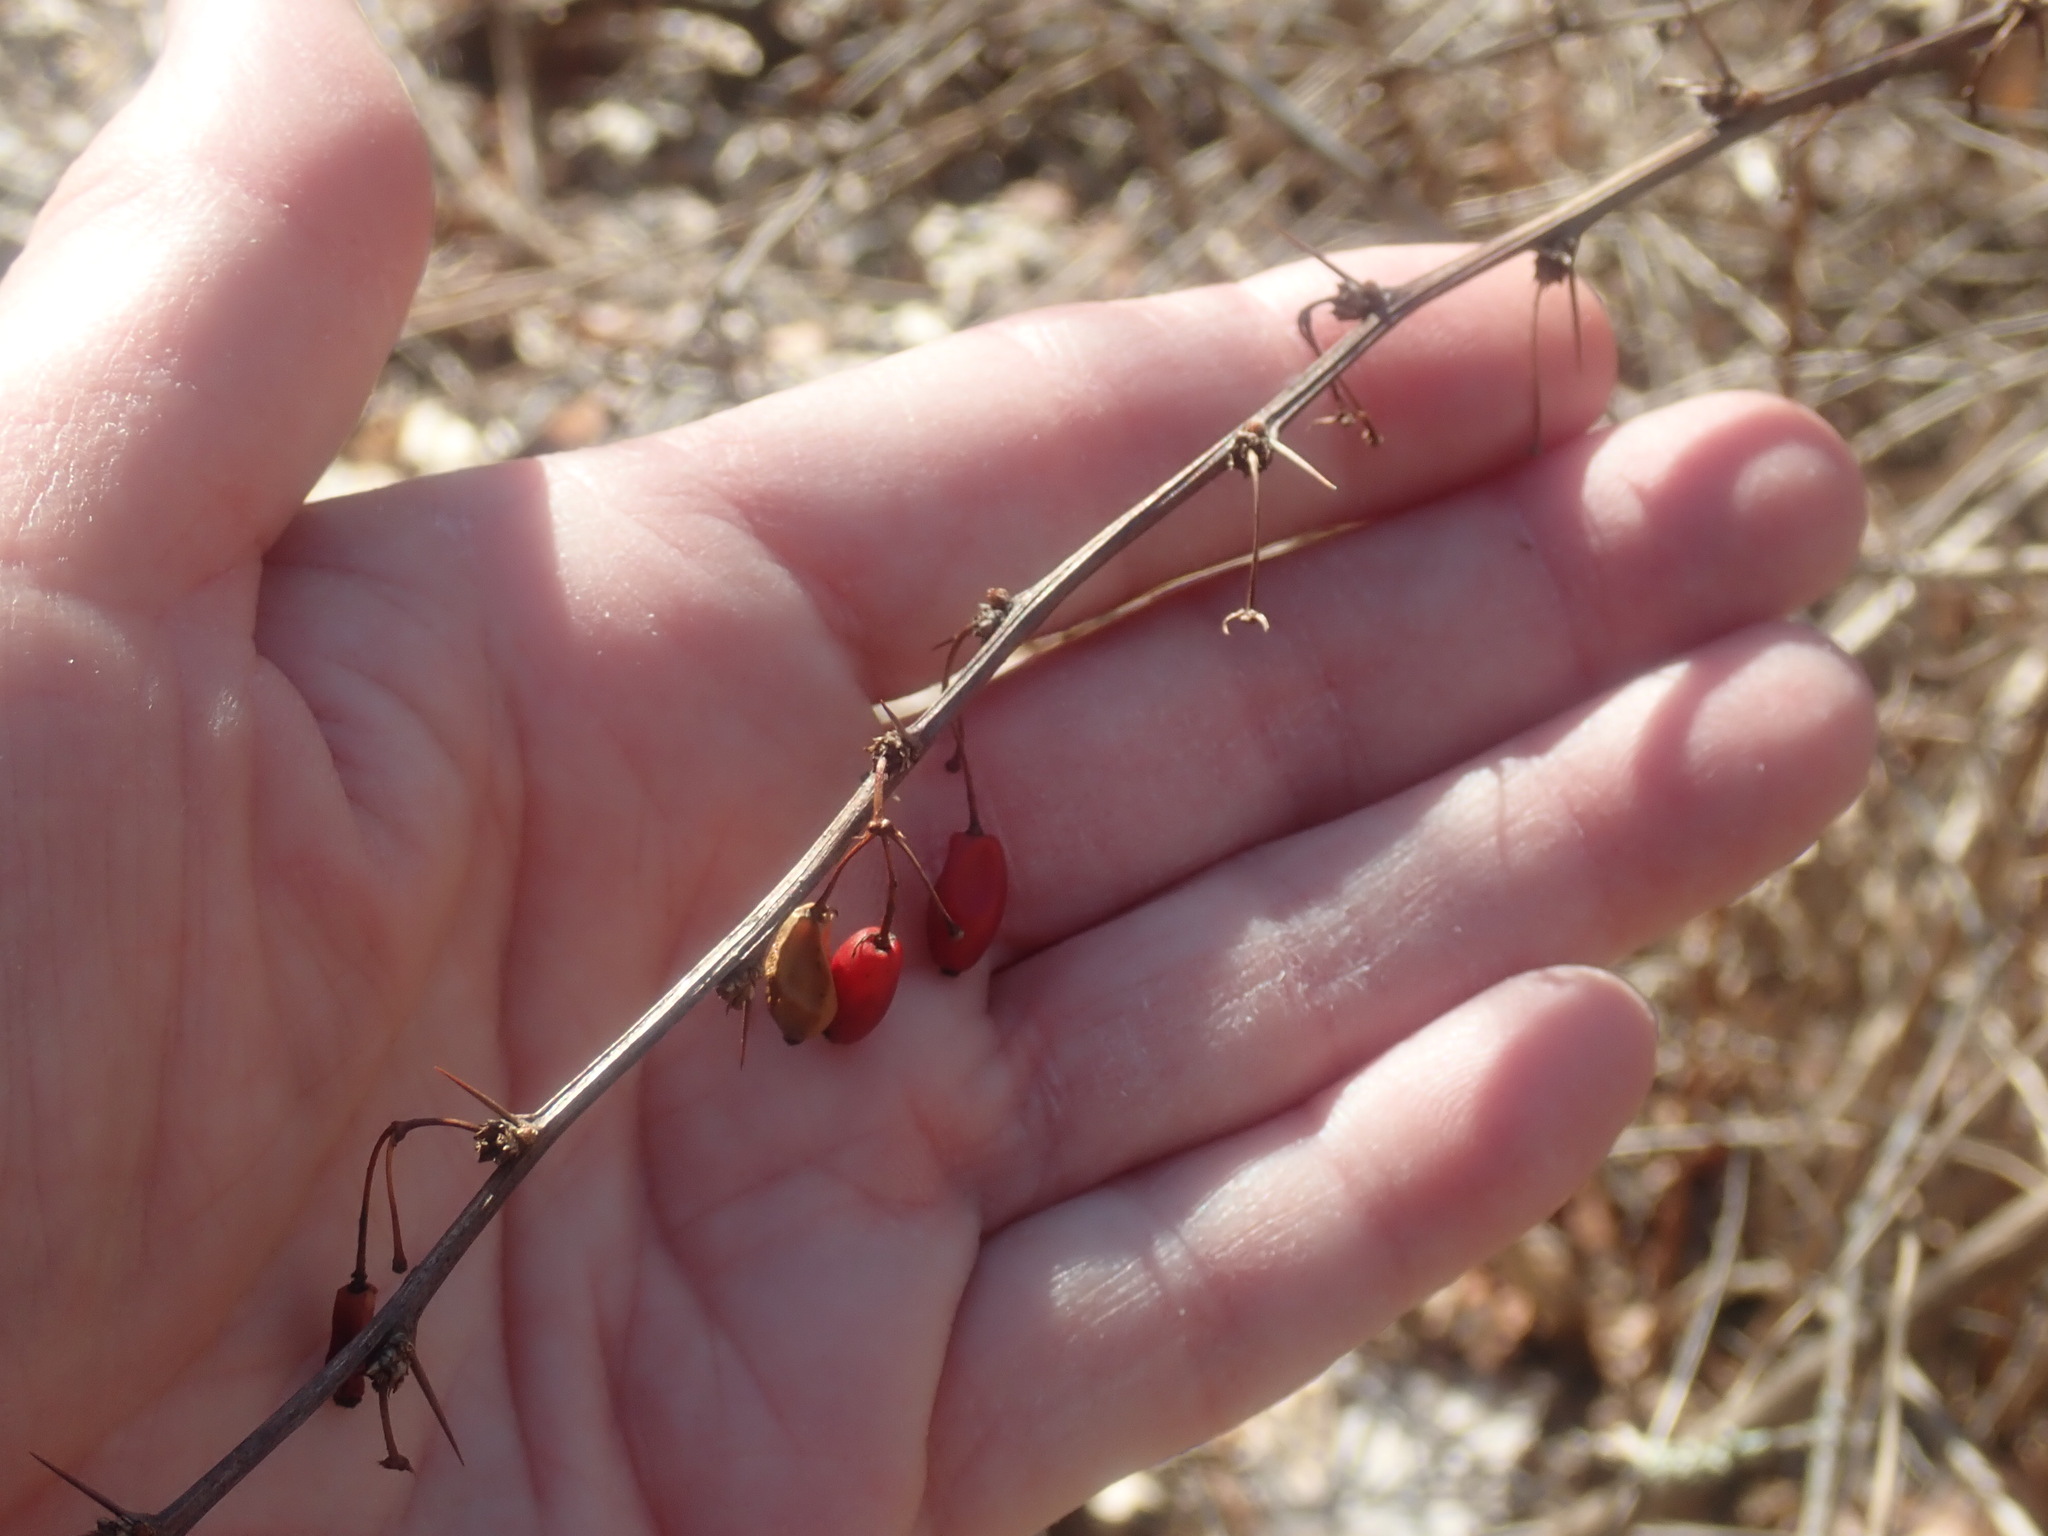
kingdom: Plantae
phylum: Tracheophyta
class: Magnoliopsida
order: Ranunculales
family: Berberidaceae
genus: Berberis
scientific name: Berberis thunbergii
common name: Japanese barberry
